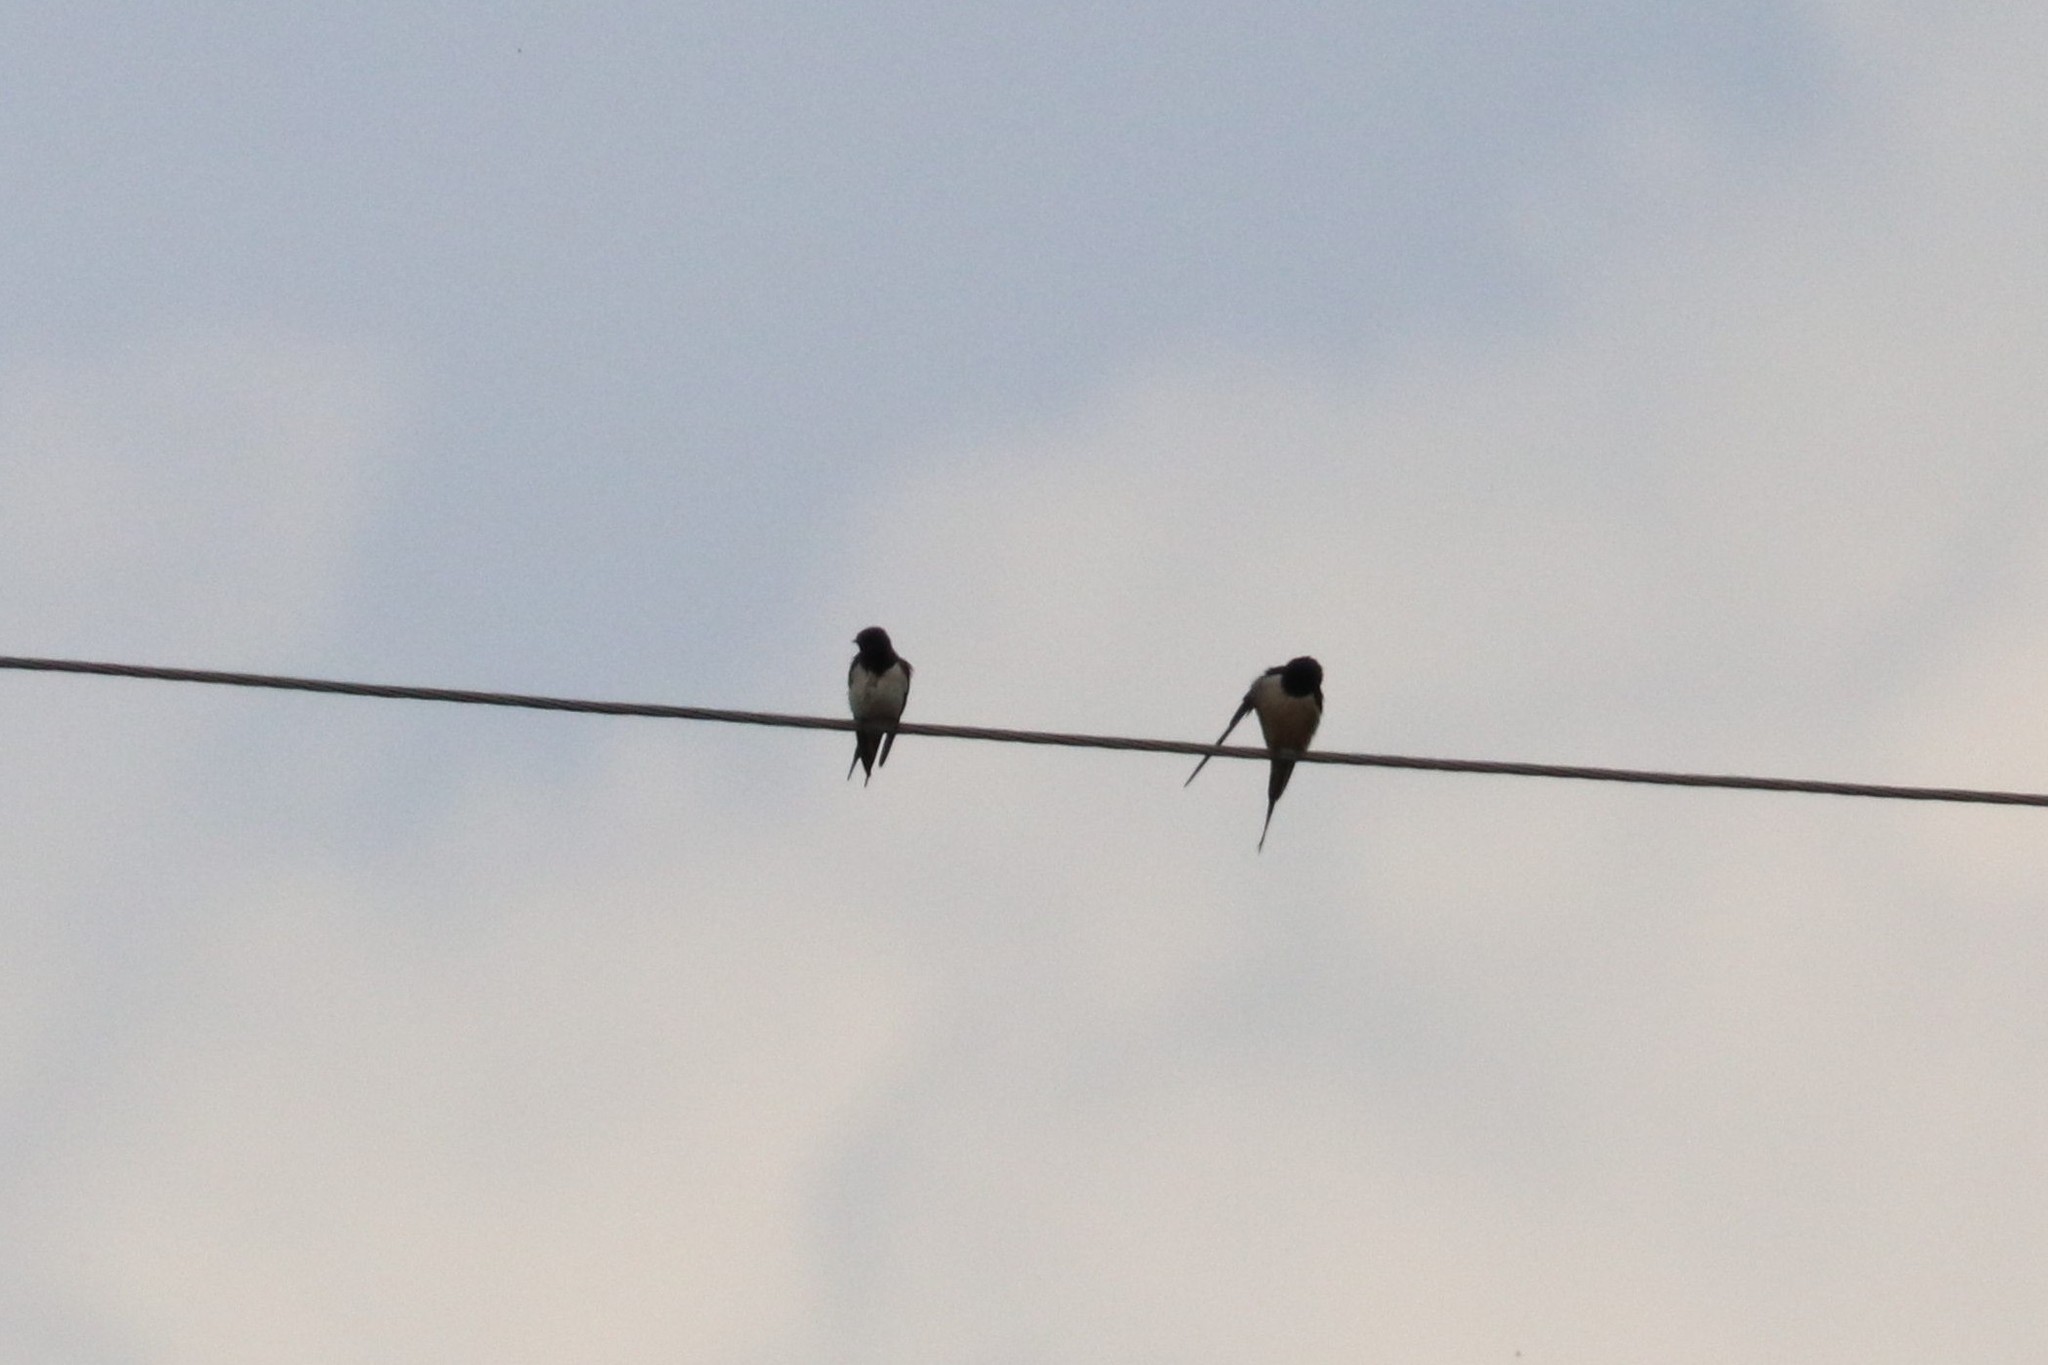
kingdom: Animalia
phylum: Chordata
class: Aves
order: Passeriformes
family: Hirundinidae
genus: Hirundo
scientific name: Hirundo rustica
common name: Barn swallow
